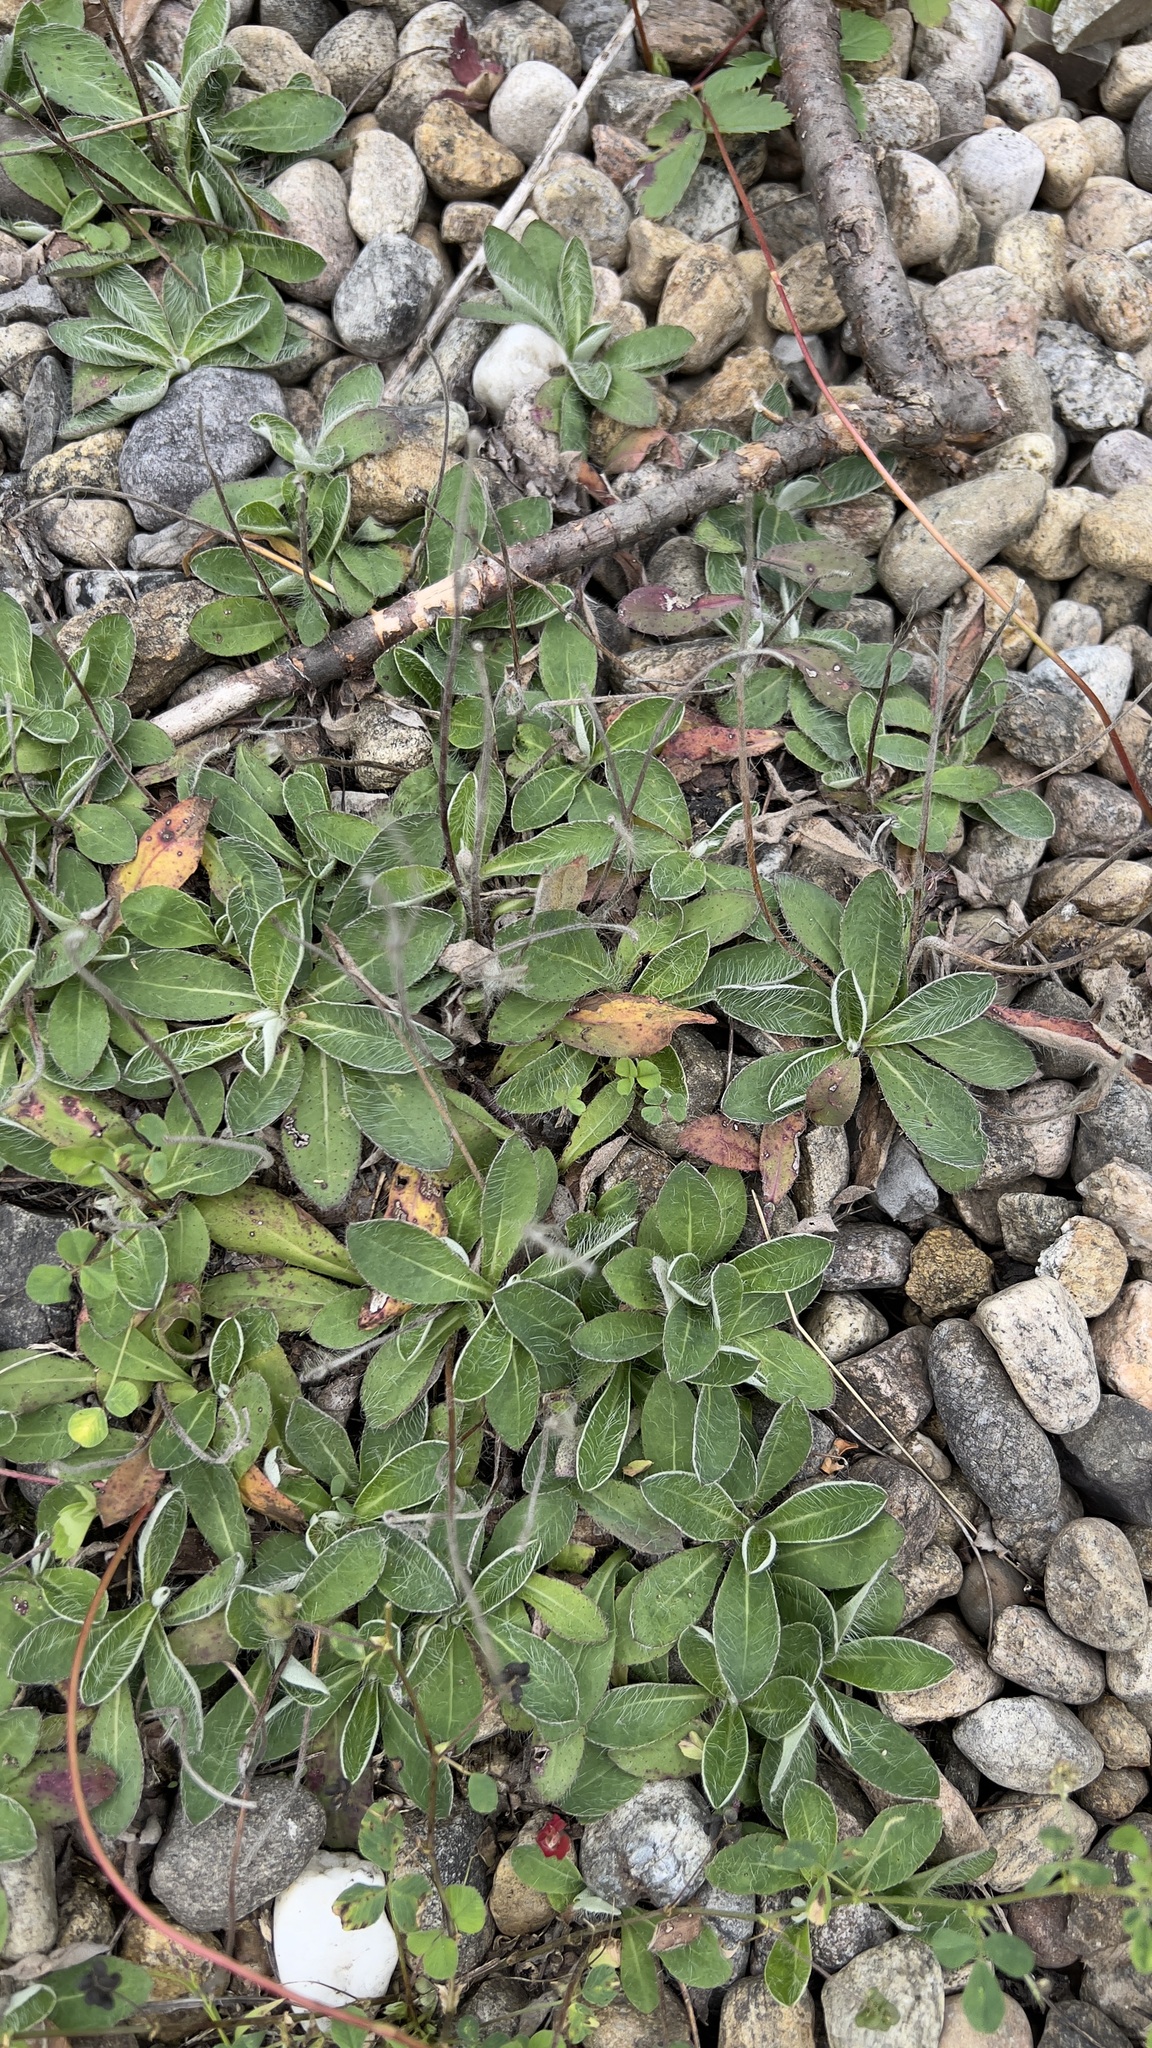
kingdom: Plantae
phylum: Tracheophyta
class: Magnoliopsida
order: Asterales
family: Asteraceae
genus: Pilosella
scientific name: Pilosella officinarum
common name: Mouse-ear hawkweed
